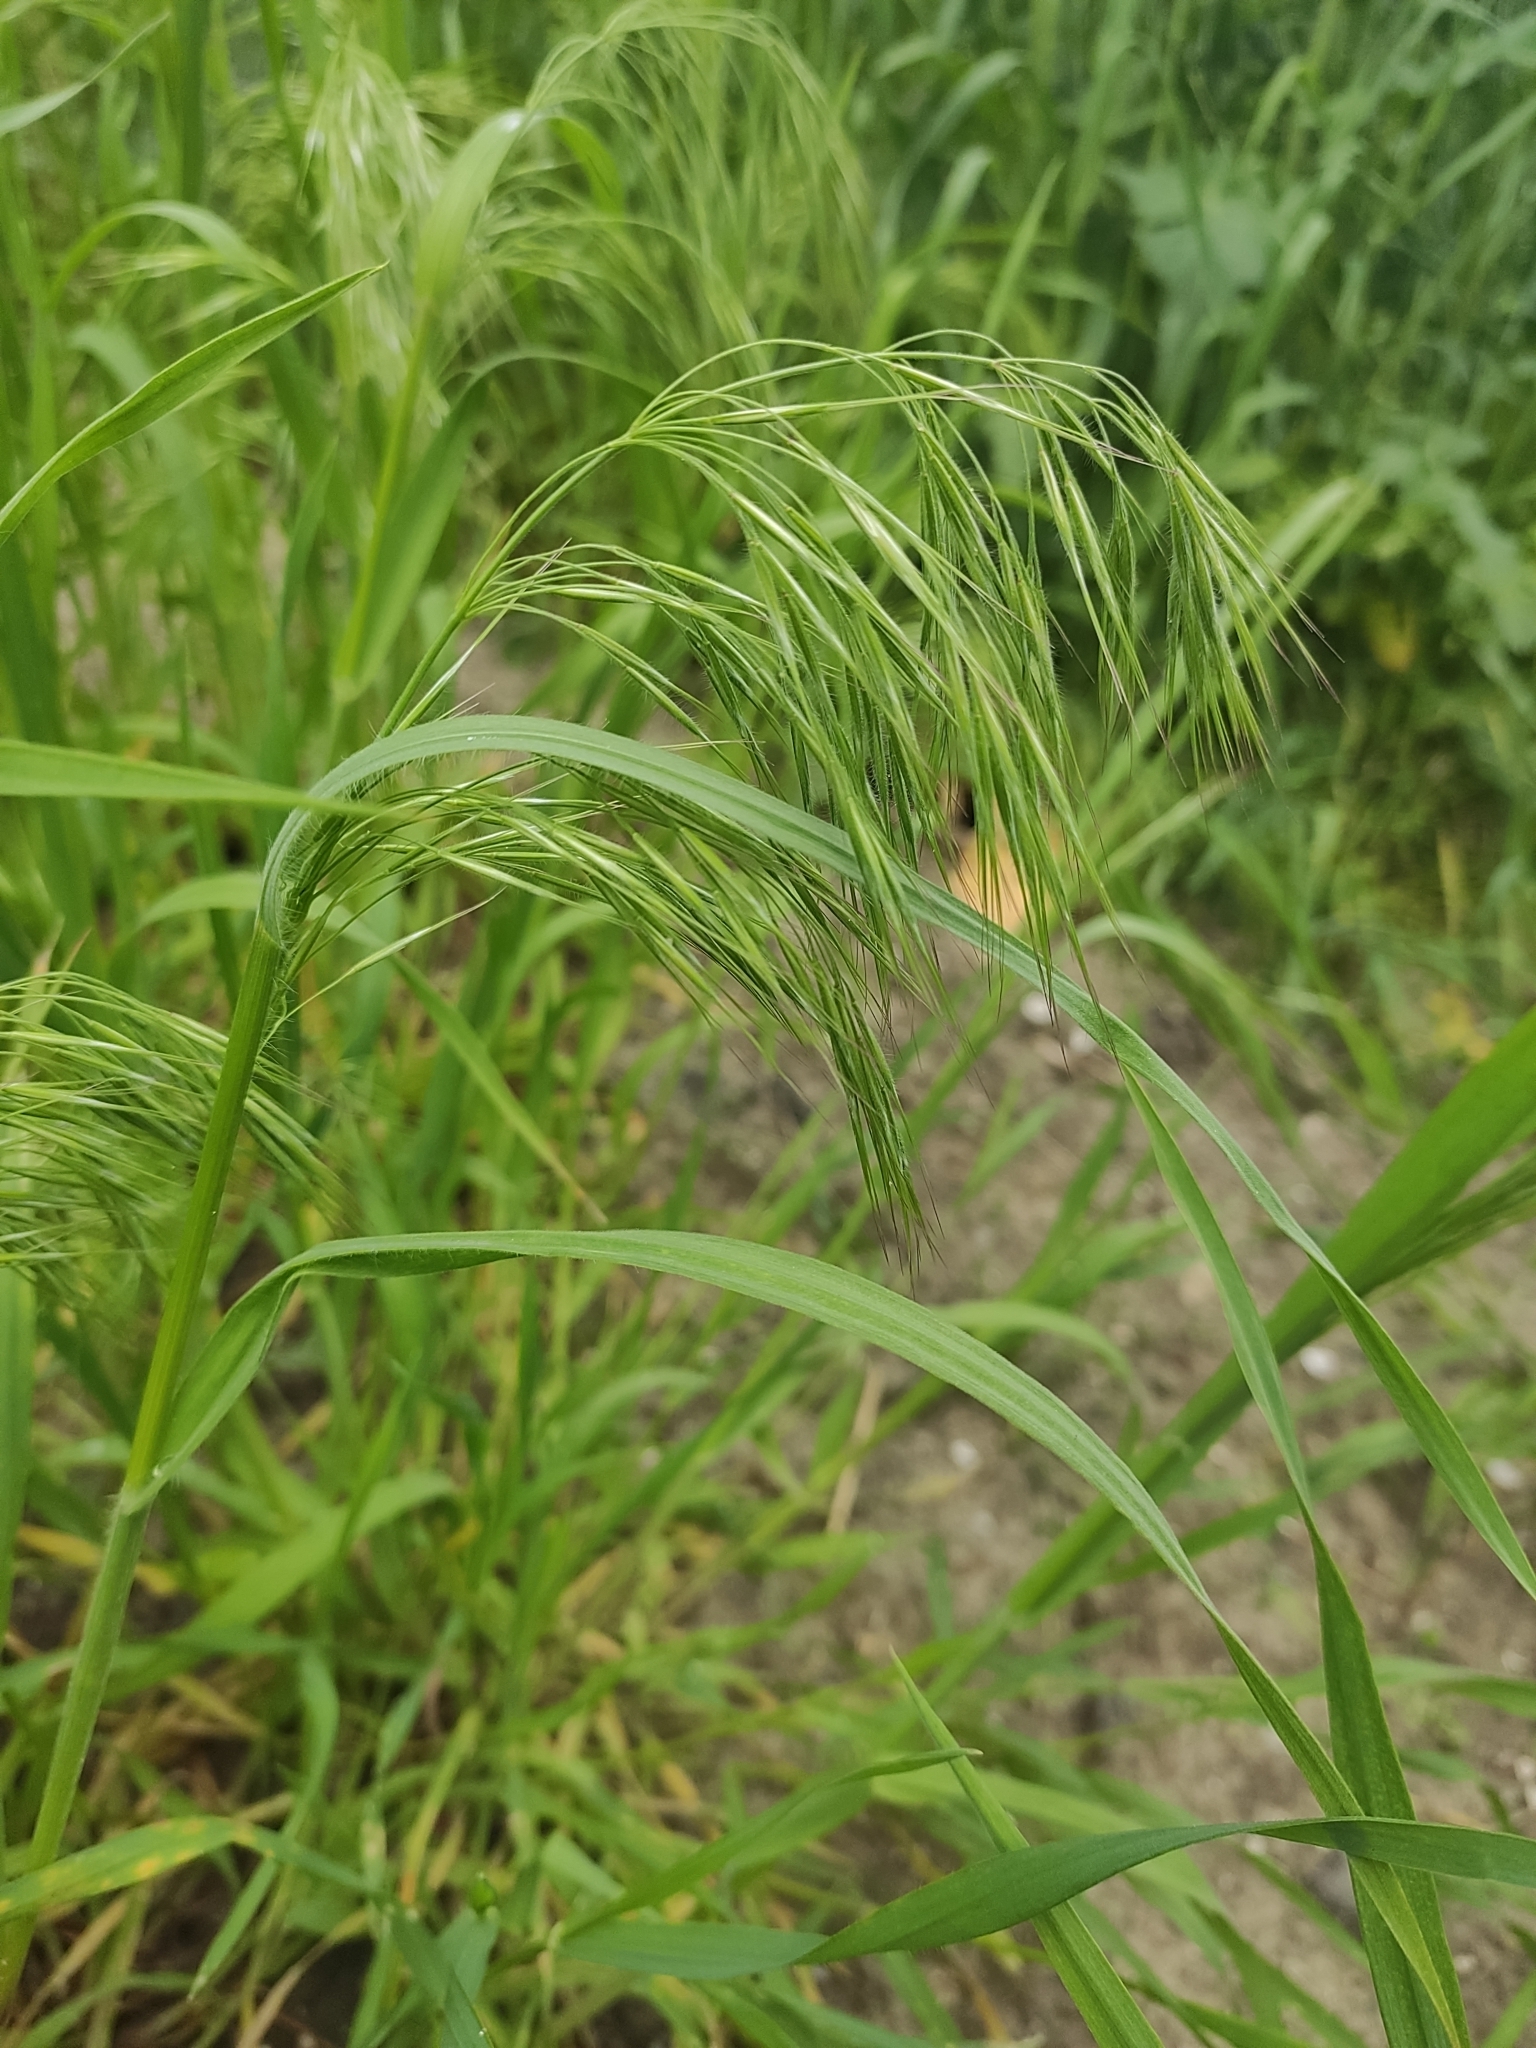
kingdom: Plantae
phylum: Tracheophyta
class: Liliopsida
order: Poales
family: Poaceae
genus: Bromus
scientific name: Bromus tectorum
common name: Cheatgrass
